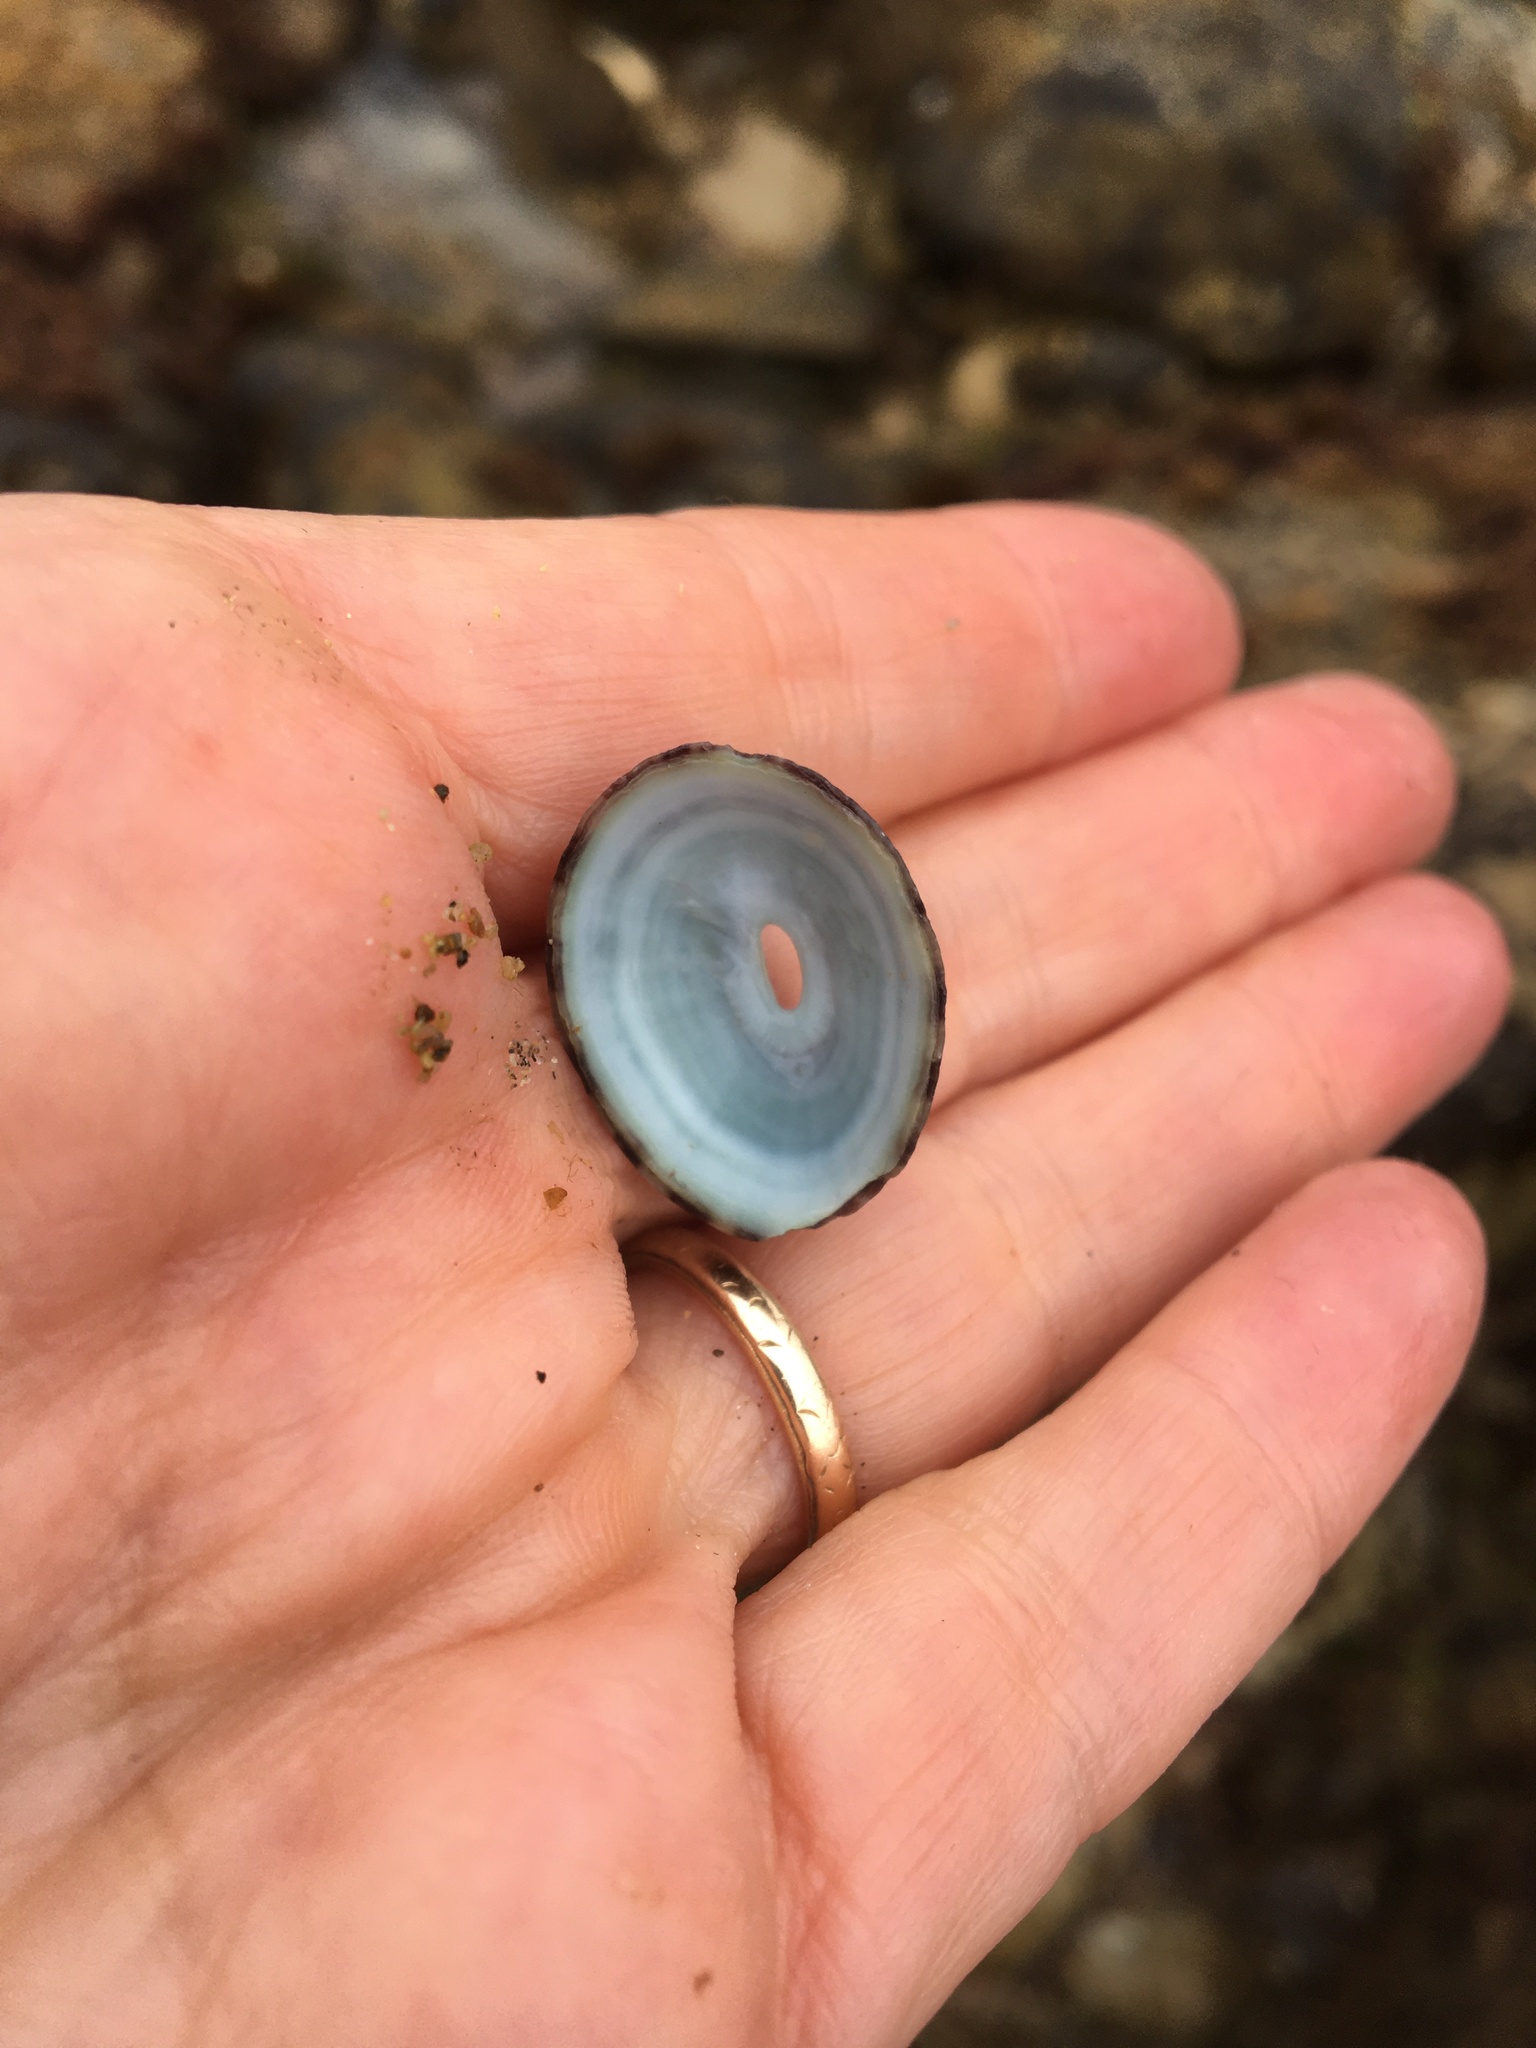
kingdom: Animalia
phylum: Mollusca
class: Gastropoda
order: Lepetellida
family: Fissurellidae
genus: Fissurella
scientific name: Fissurella volcano
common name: Volcano keyhole limpet
